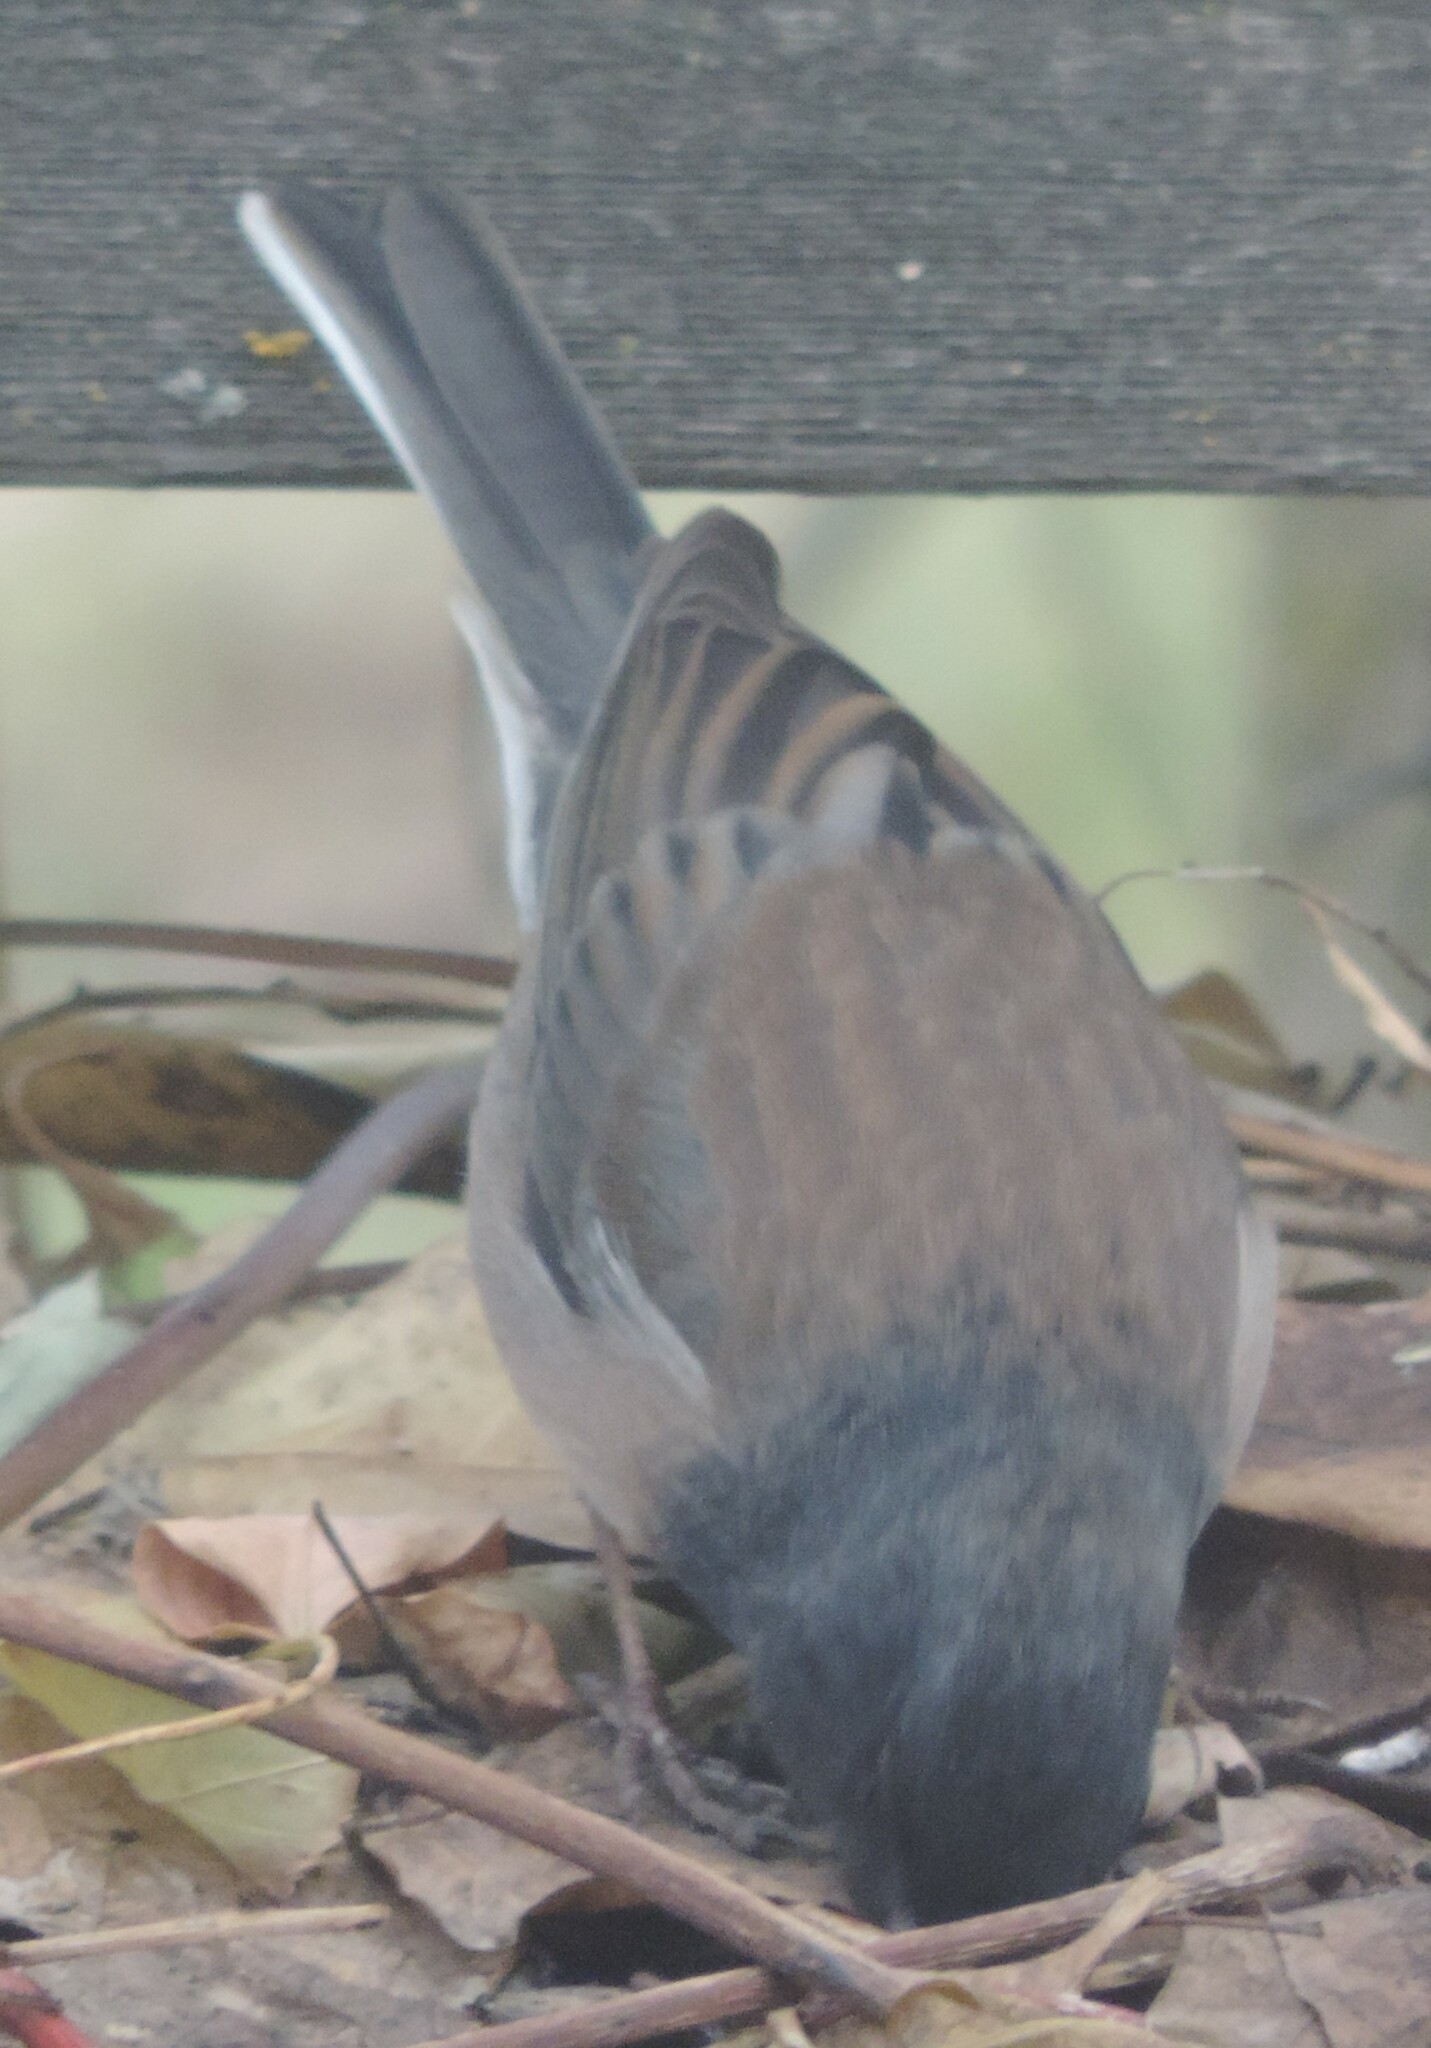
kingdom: Animalia
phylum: Chordata
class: Aves
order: Passeriformes
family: Passerellidae
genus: Junco
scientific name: Junco hyemalis
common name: Dark-eyed junco
